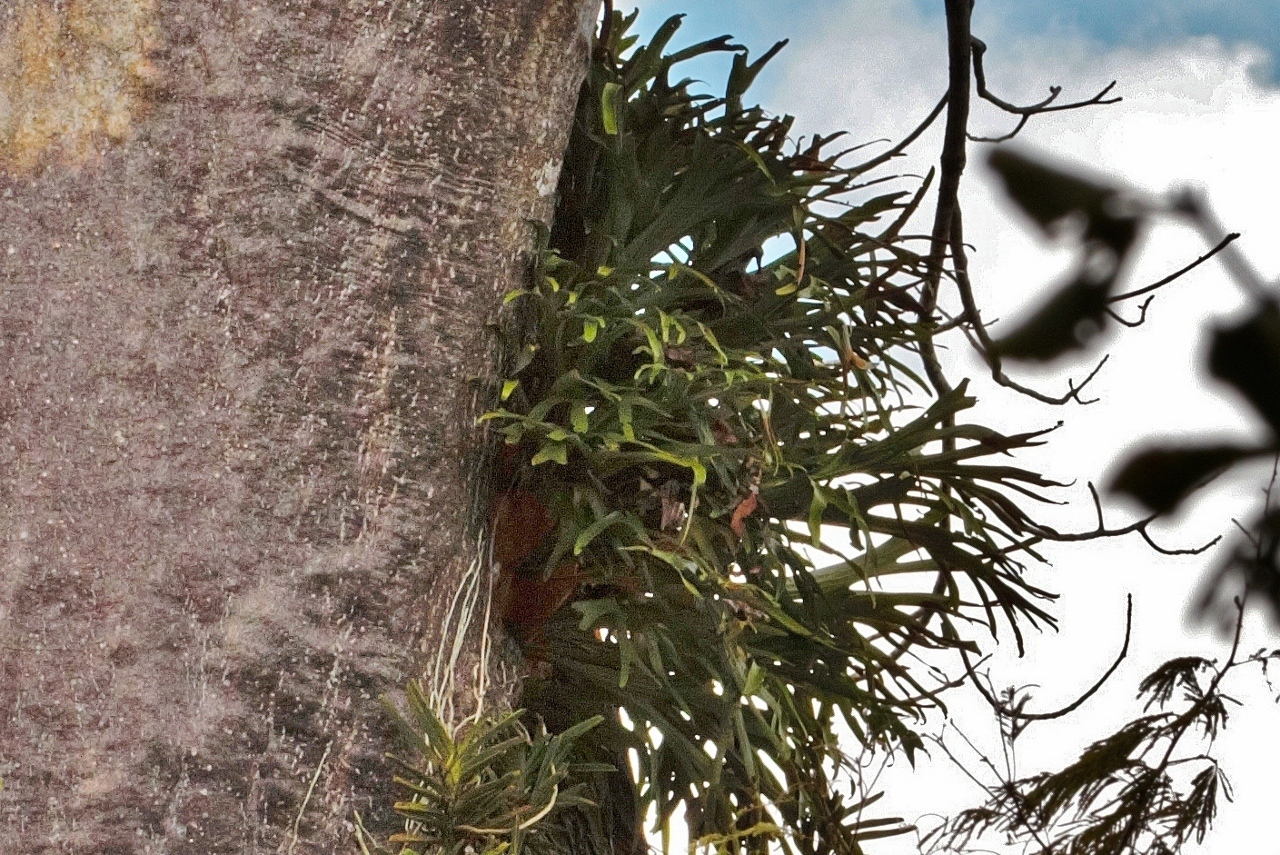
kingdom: Plantae
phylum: Tracheophyta
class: Polypodiopsida
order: Polypodiales
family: Polypodiaceae
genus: Platycerium
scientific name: Platycerium alcicorne
